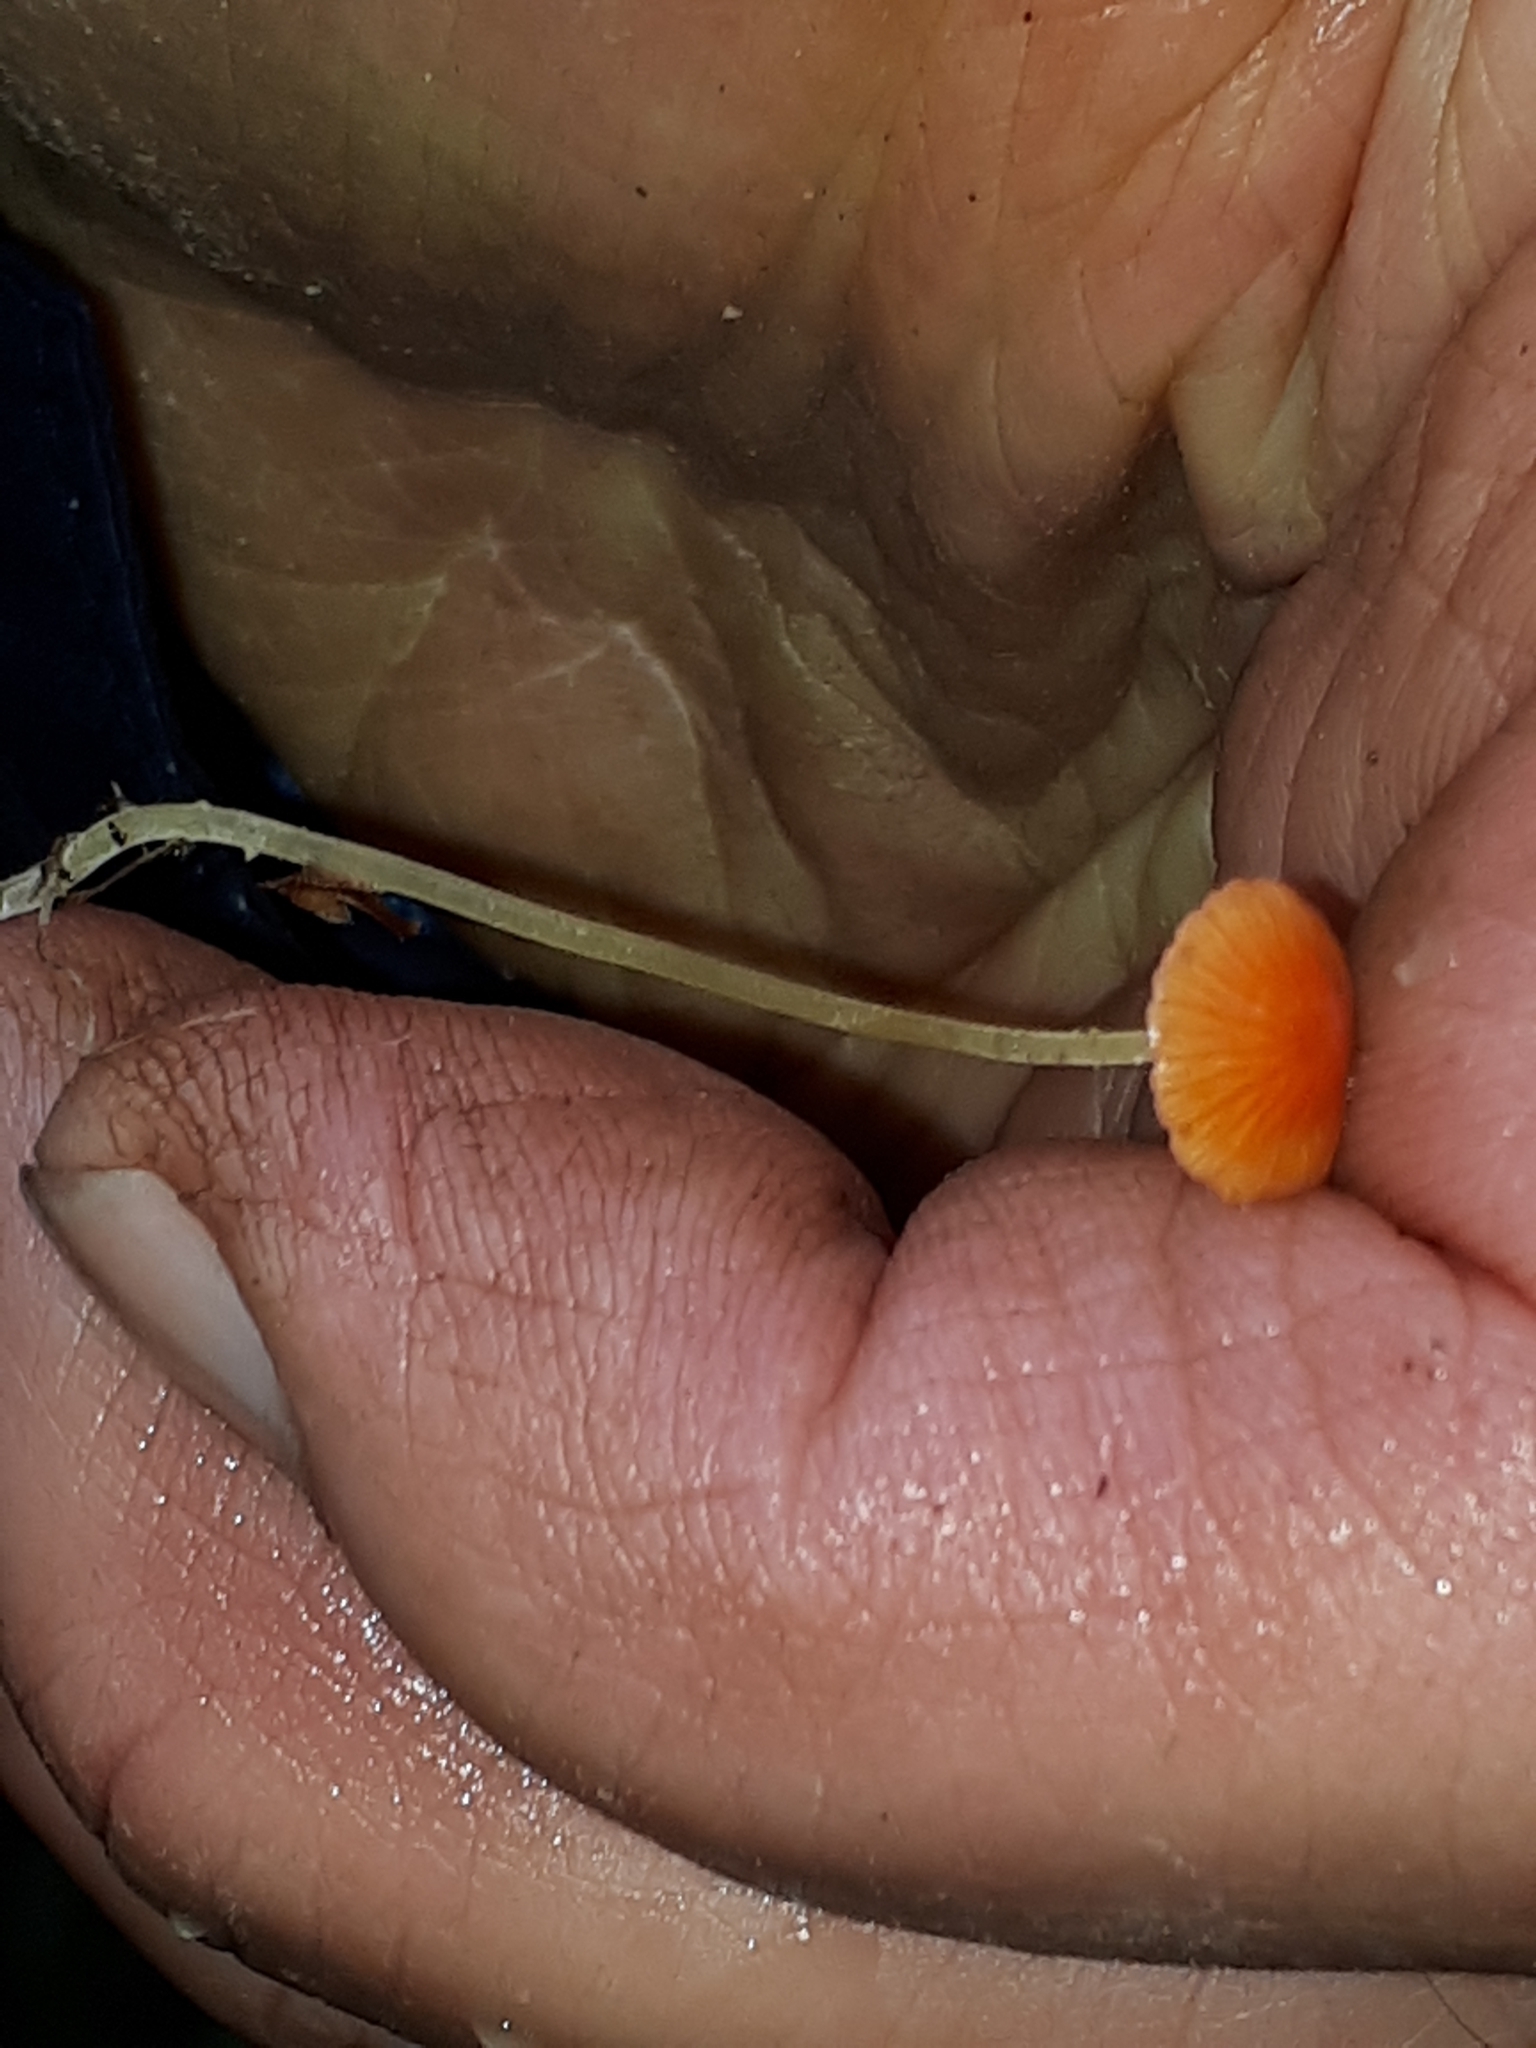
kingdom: Fungi
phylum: Basidiomycota
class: Agaricomycetes
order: Agaricales
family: Mycenaceae
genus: Mycena
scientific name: Mycena acicula
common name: Orange bonnet
